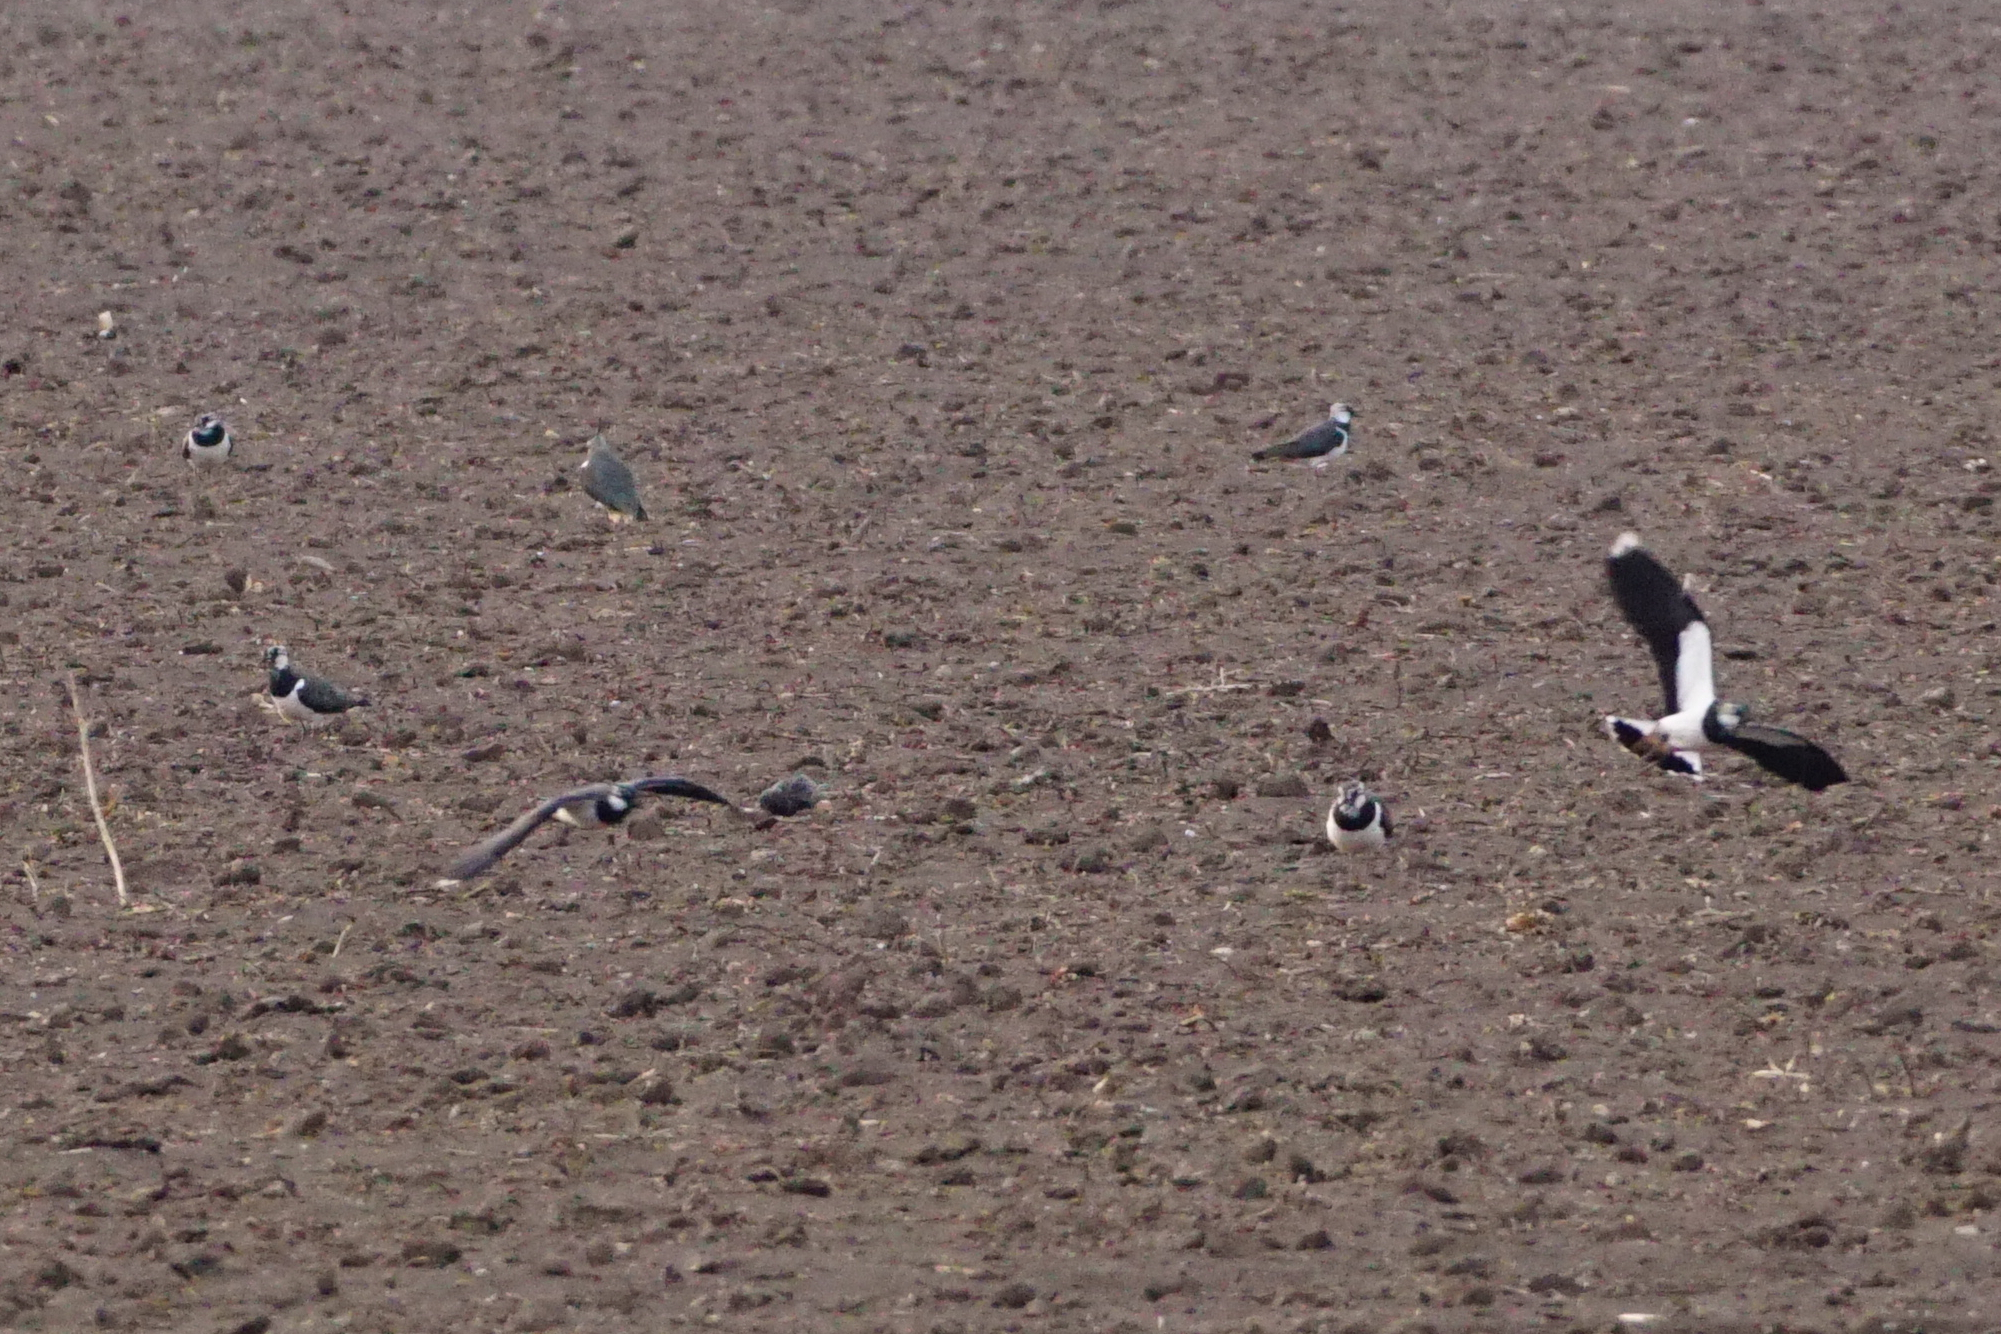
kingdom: Animalia
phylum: Chordata
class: Aves
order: Charadriiformes
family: Charadriidae
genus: Vanellus
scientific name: Vanellus vanellus
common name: Northern lapwing
